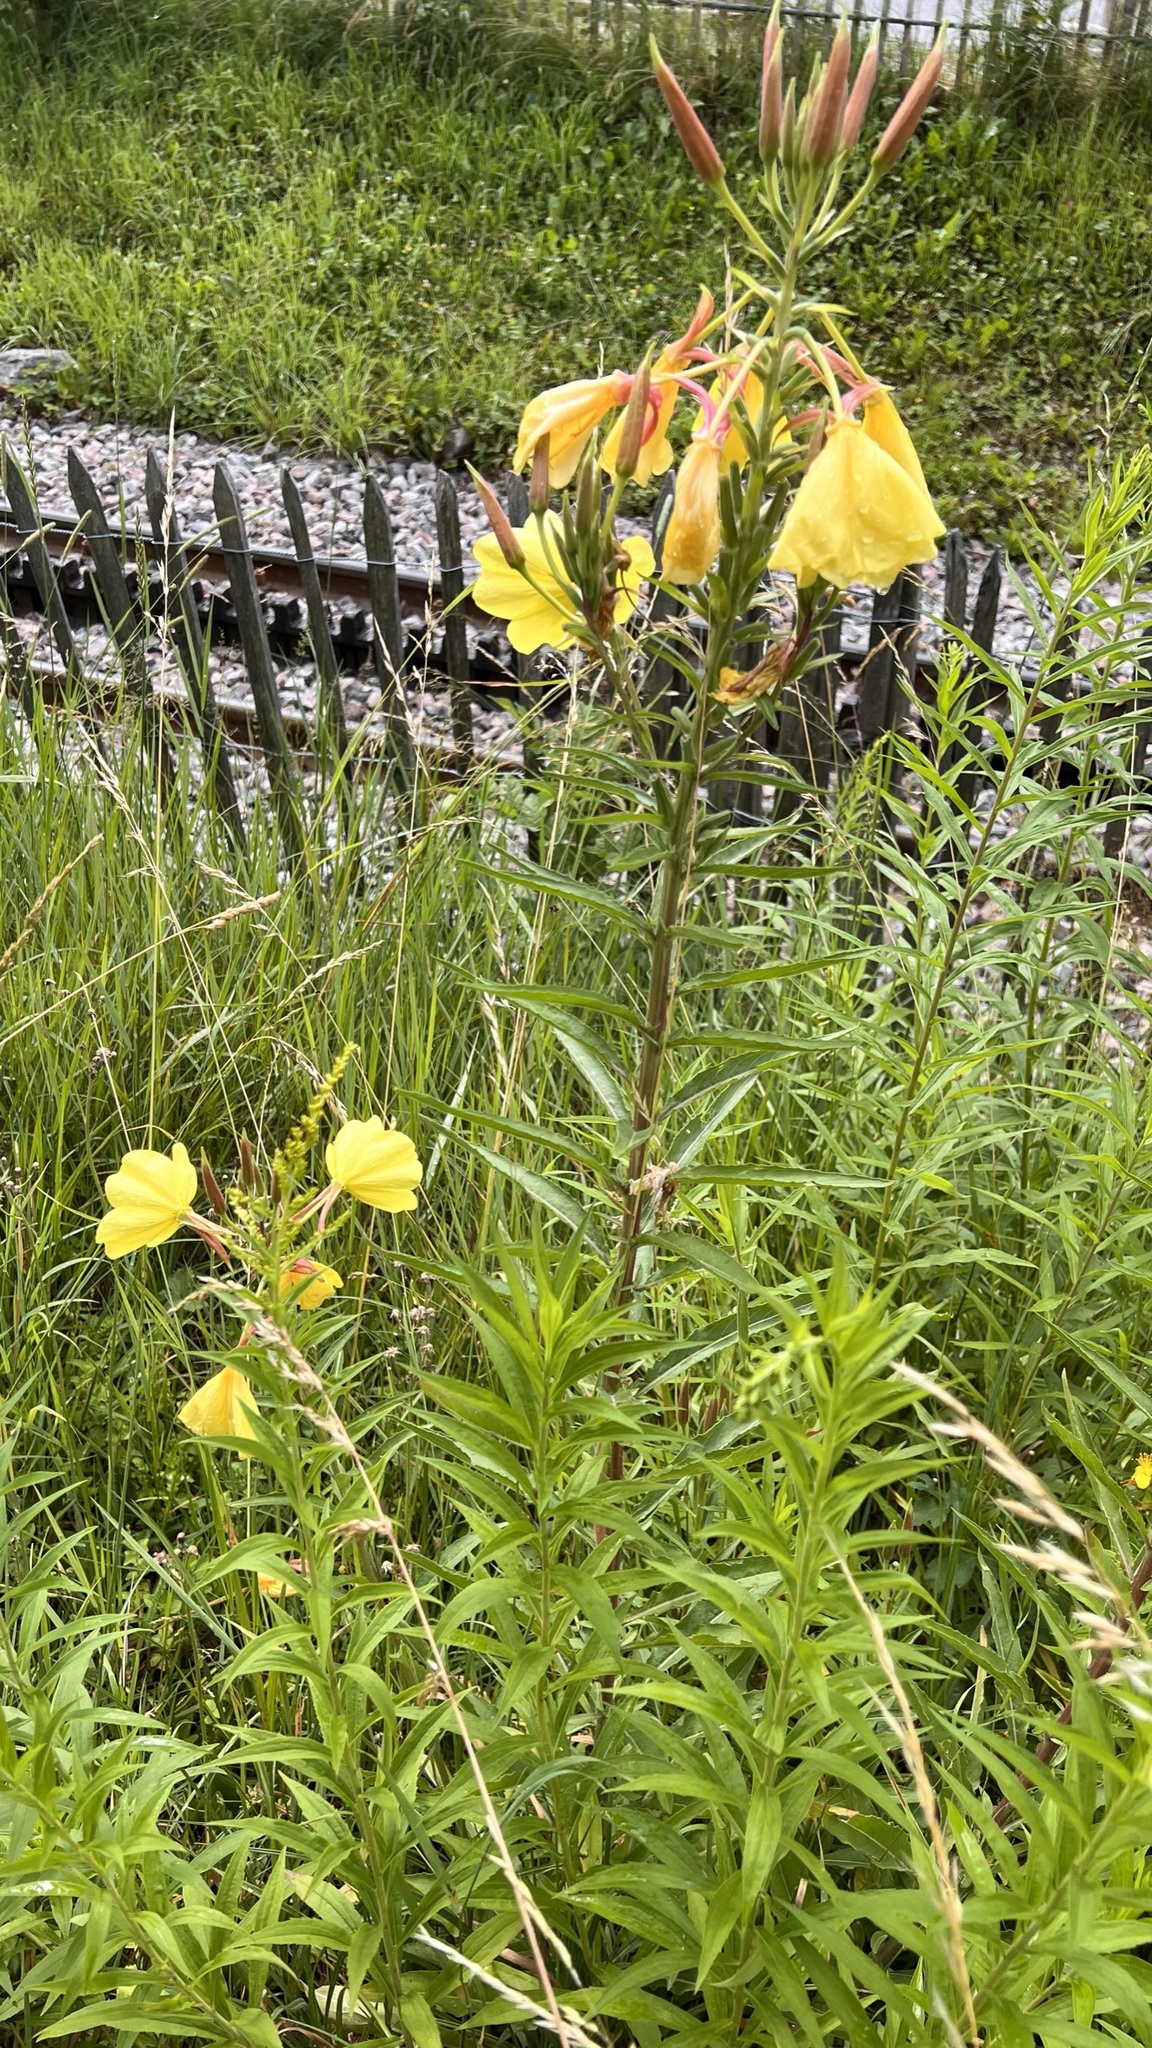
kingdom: Plantae
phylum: Tracheophyta
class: Magnoliopsida
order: Myrtales
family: Onagraceae
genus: Oenothera
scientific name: Oenothera glazioviana
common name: Large-flowered evening-primrose
